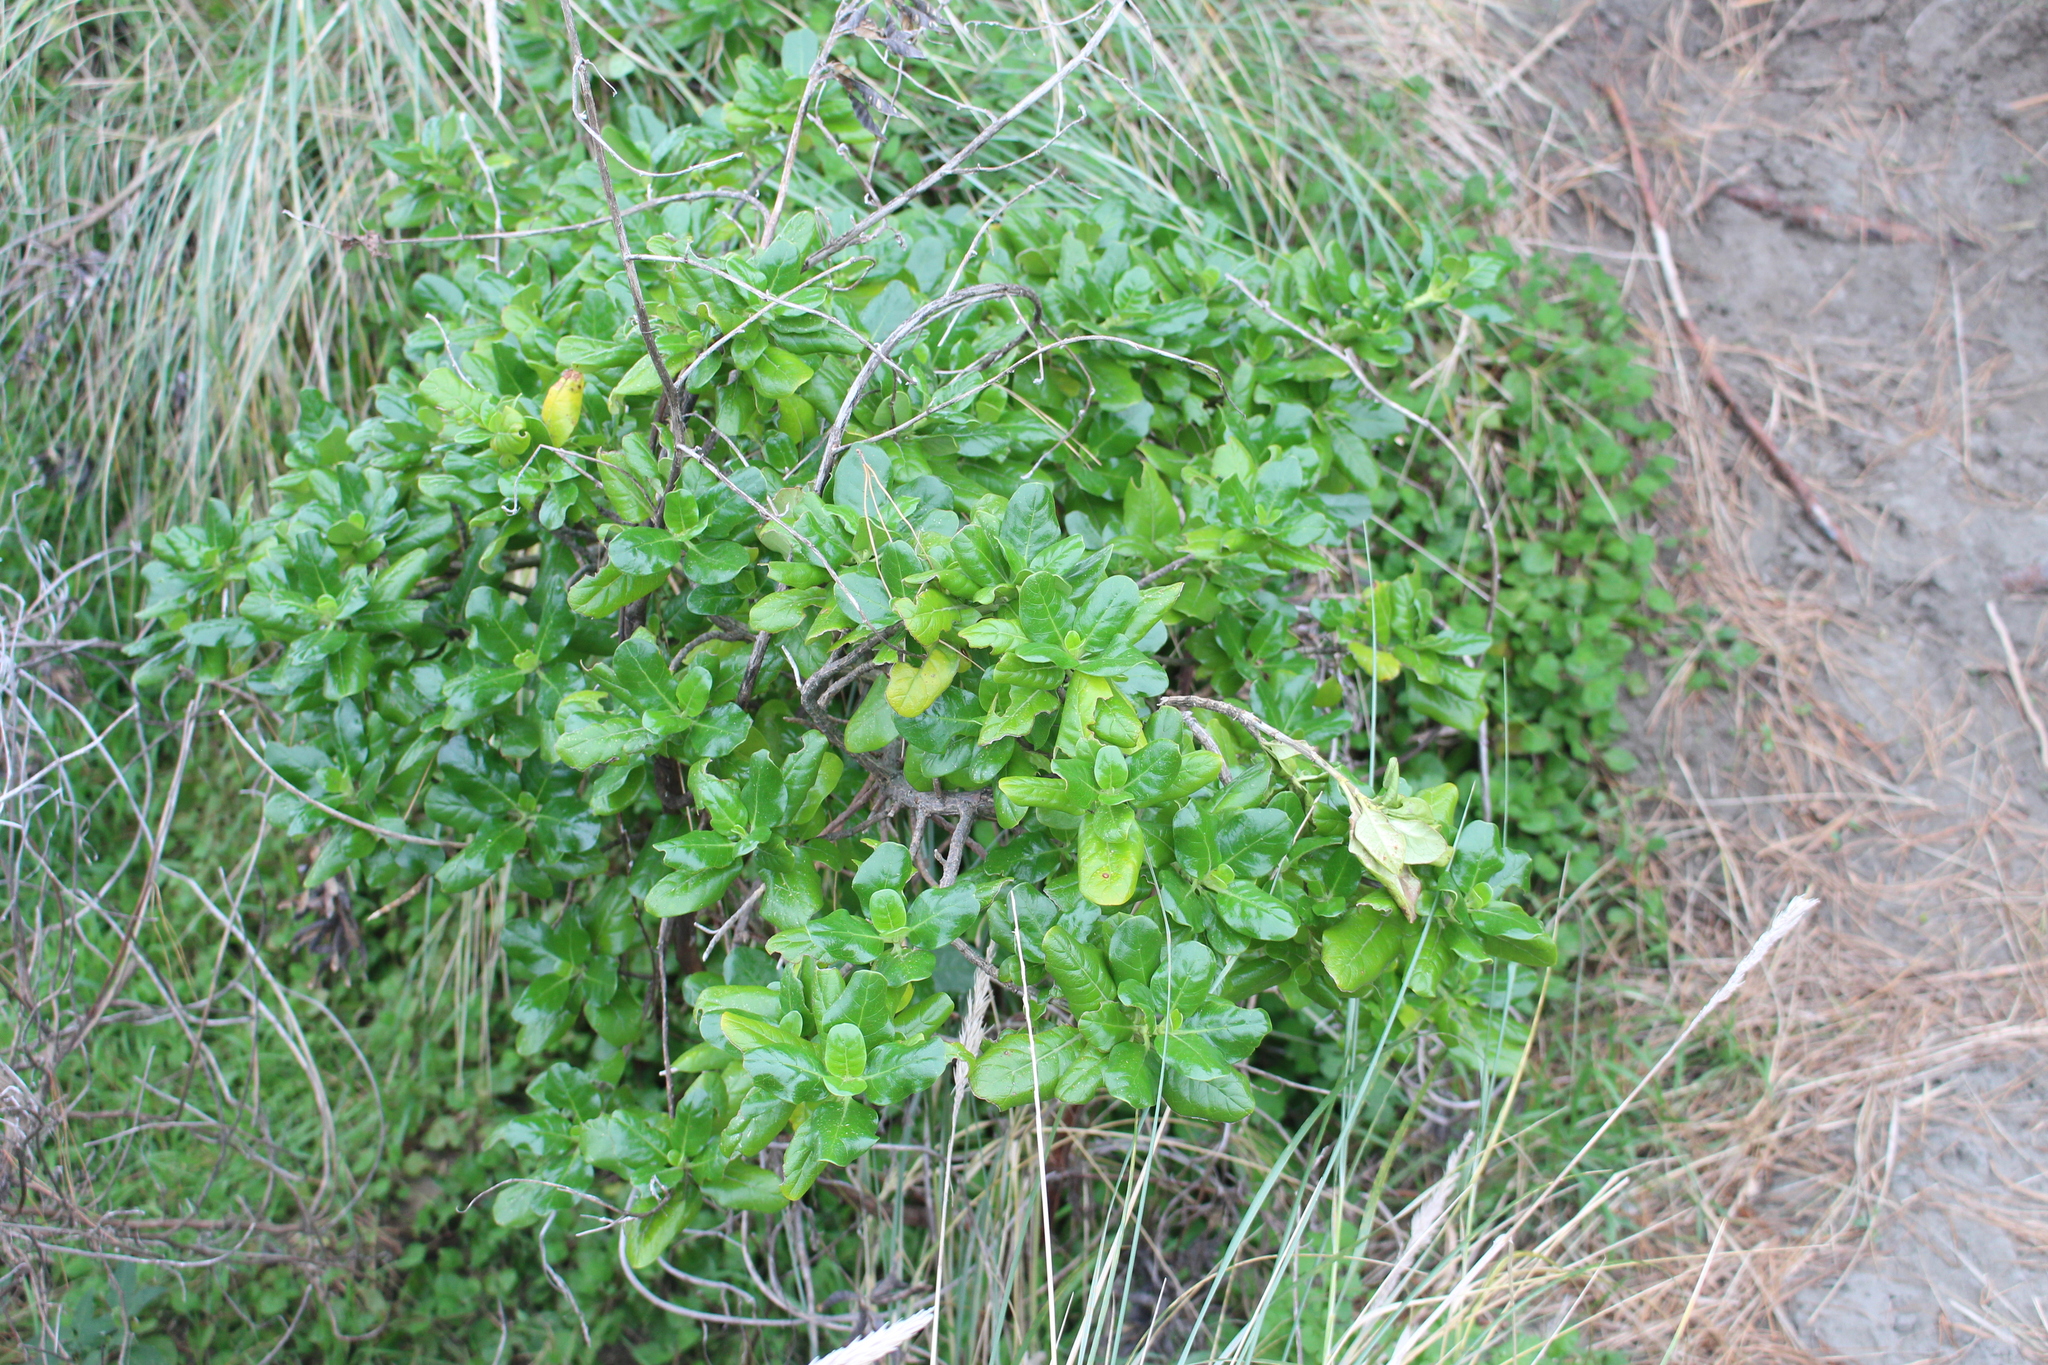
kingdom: Plantae
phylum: Tracheophyta
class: Magnoliopsida
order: Gentianales
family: Rubiaceae
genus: Coprosma
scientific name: Coprosma repens
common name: Tree bedstraw
